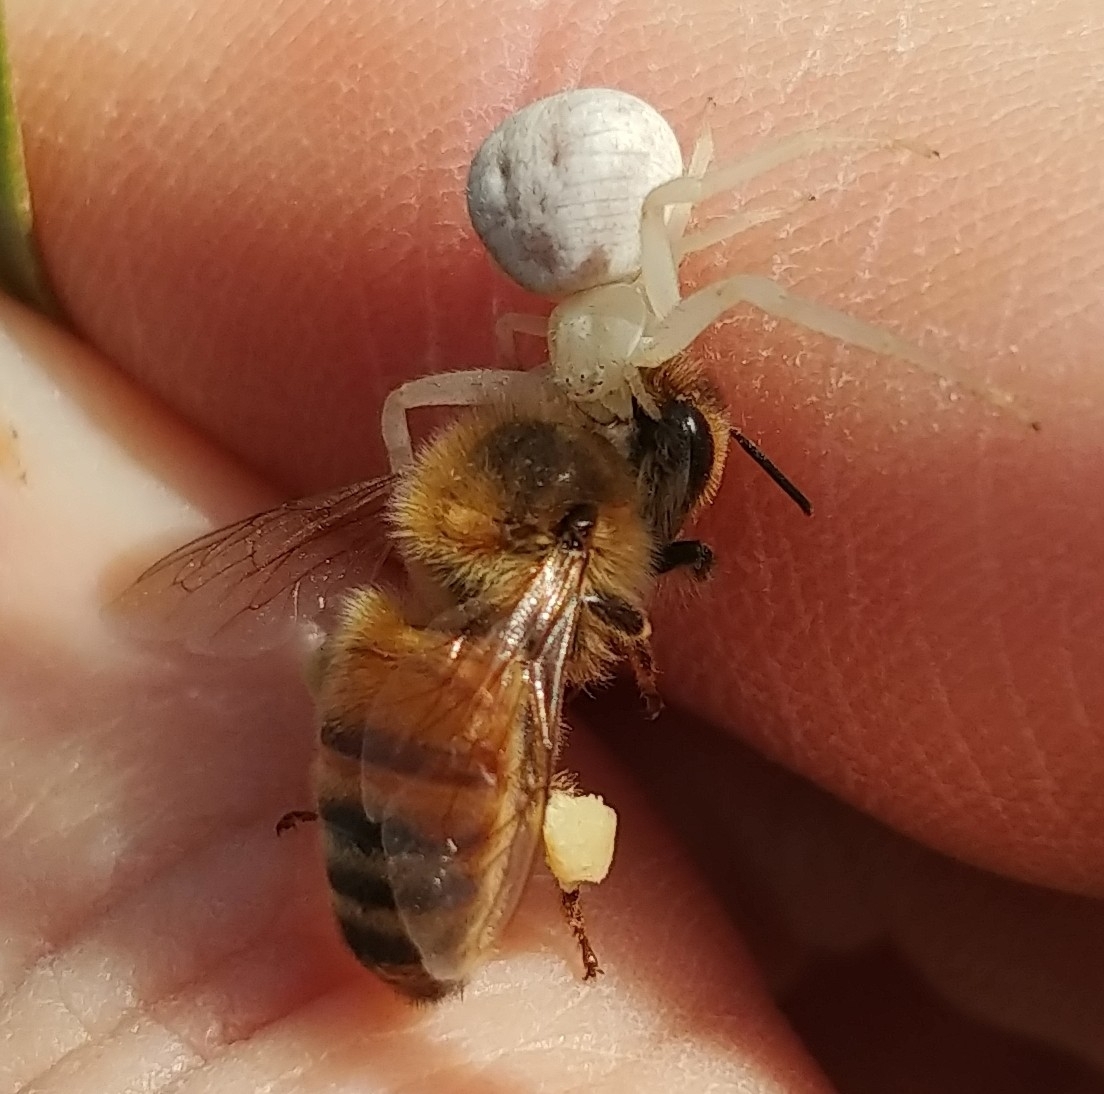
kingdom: Animalia
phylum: Arthropoda
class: Insecta
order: Hymenoptera
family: Apidae
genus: Apis
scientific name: Apis mellifera
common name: Honey bee
